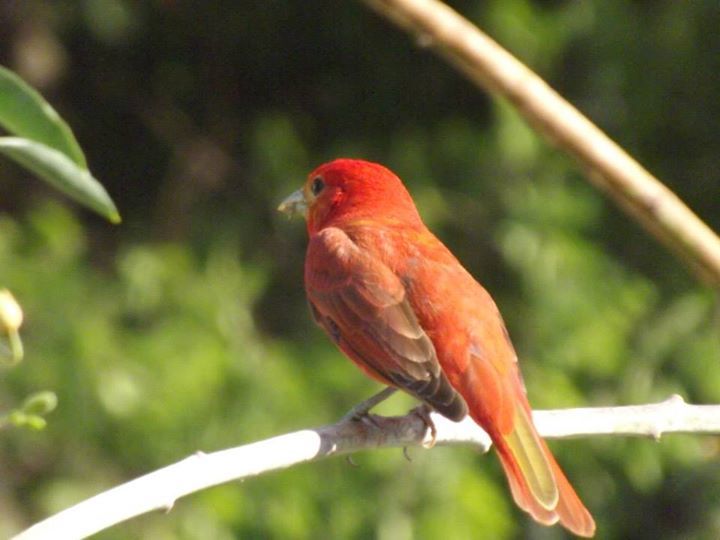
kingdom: Animalia
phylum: Chordata
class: Aves
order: Passeriformes
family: Cardinalidae
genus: Piranga
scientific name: Piranga rubra
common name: Summer tanager
